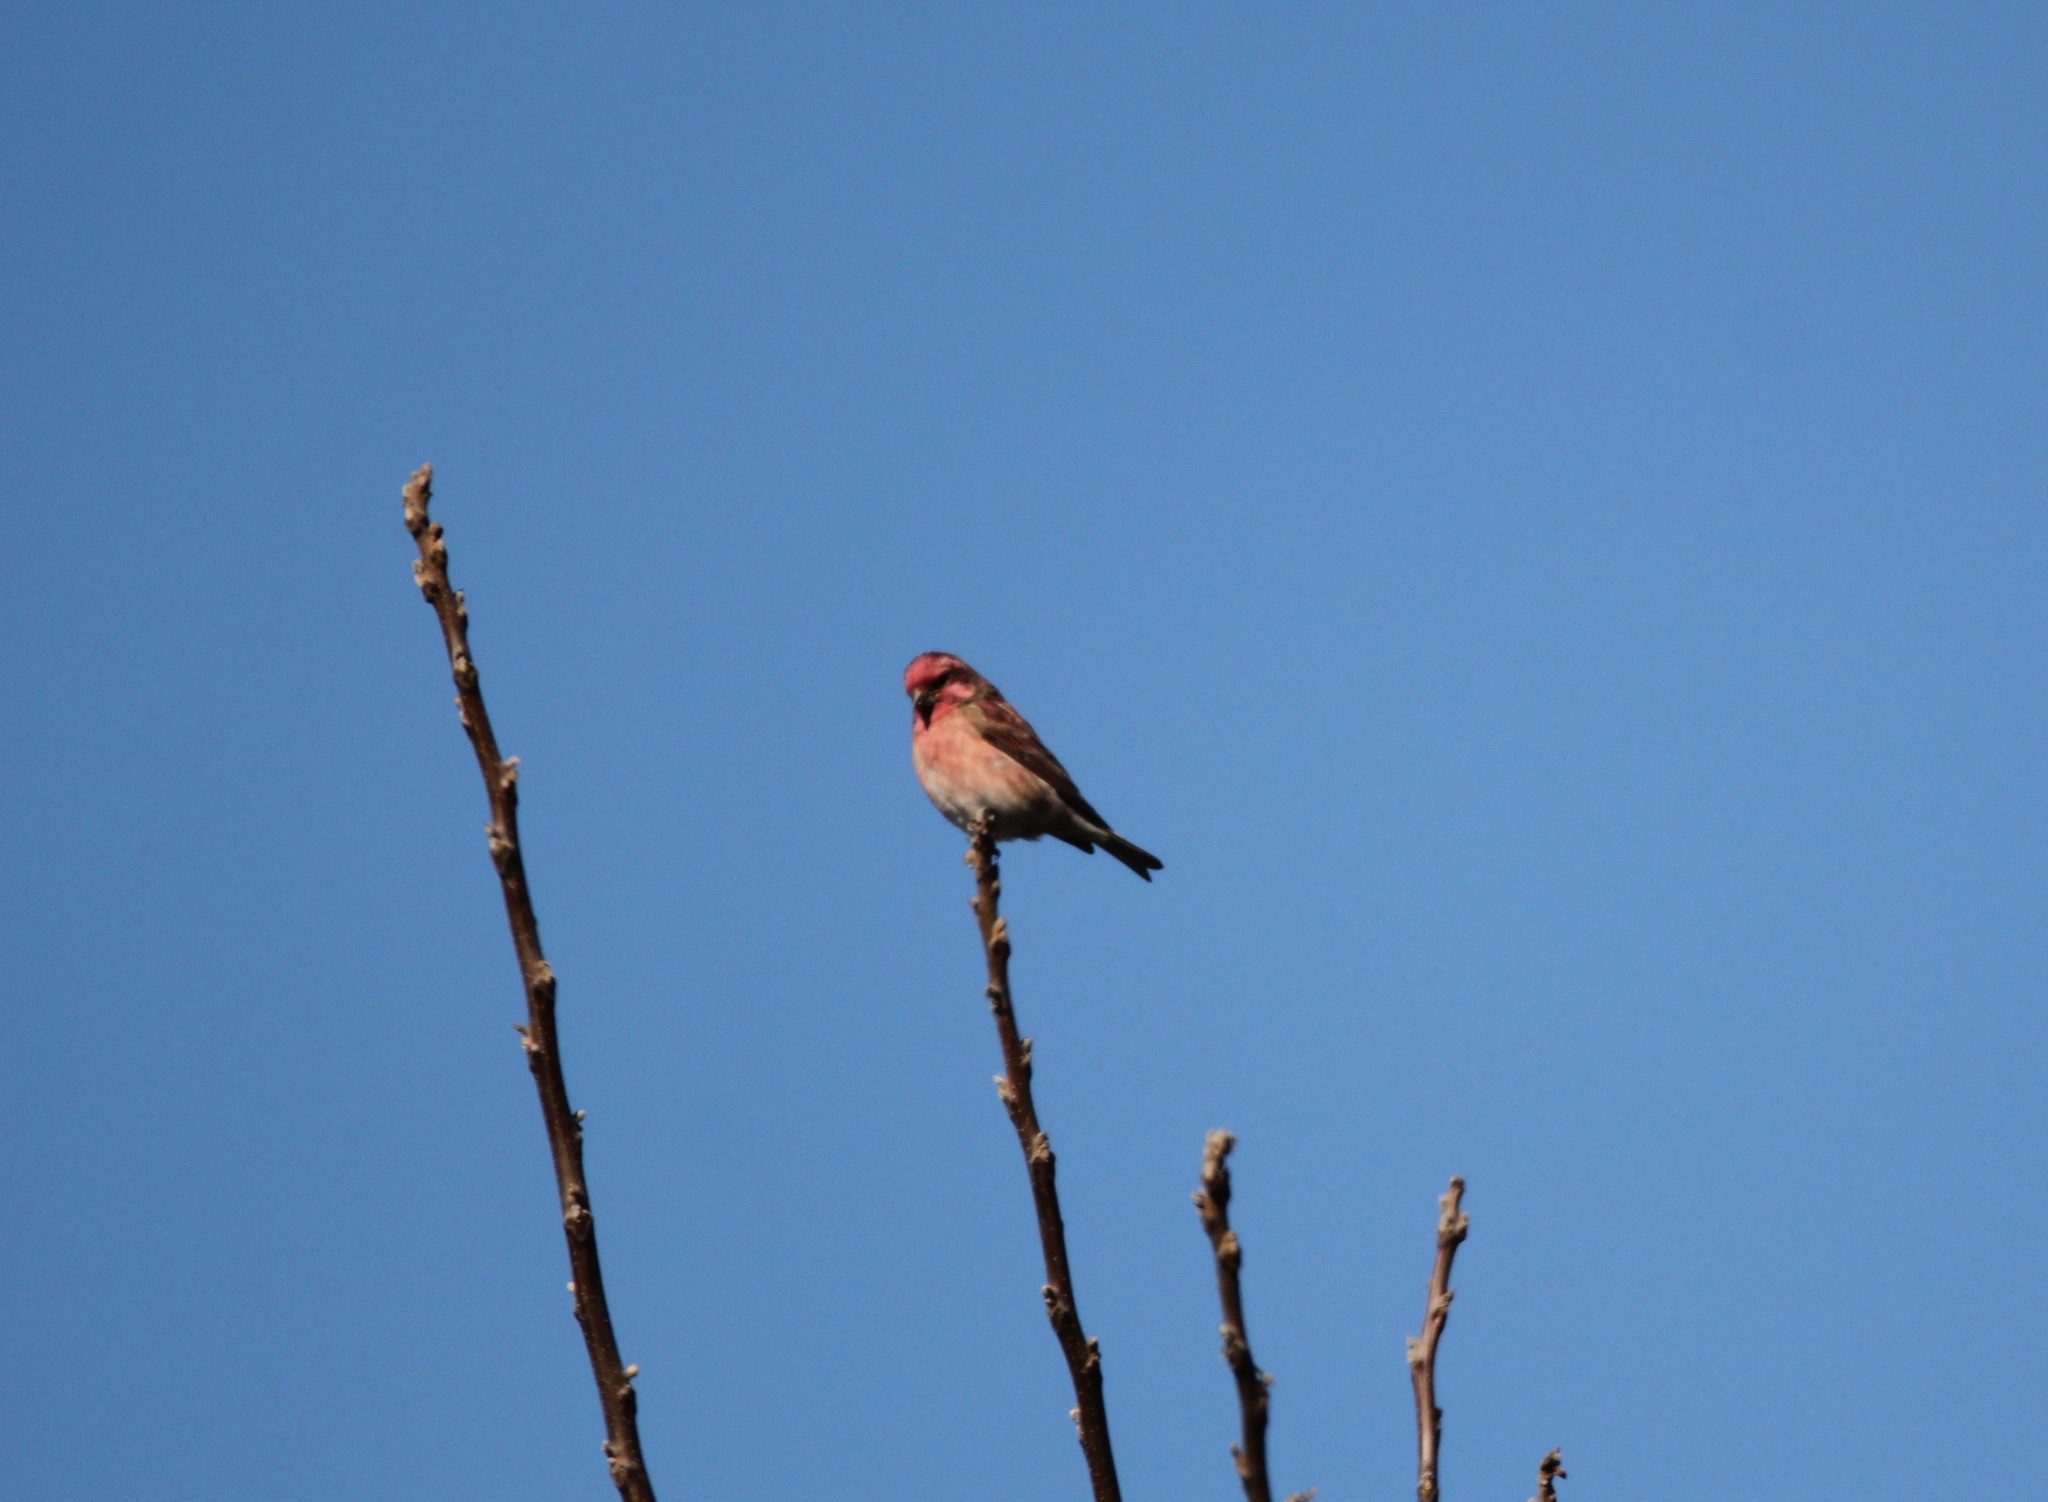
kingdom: Animalia
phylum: Chordata
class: Aves
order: Passeriformes
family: Fringillidae
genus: Haemorhous
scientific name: Haemorhous purpureus
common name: Purple finch
